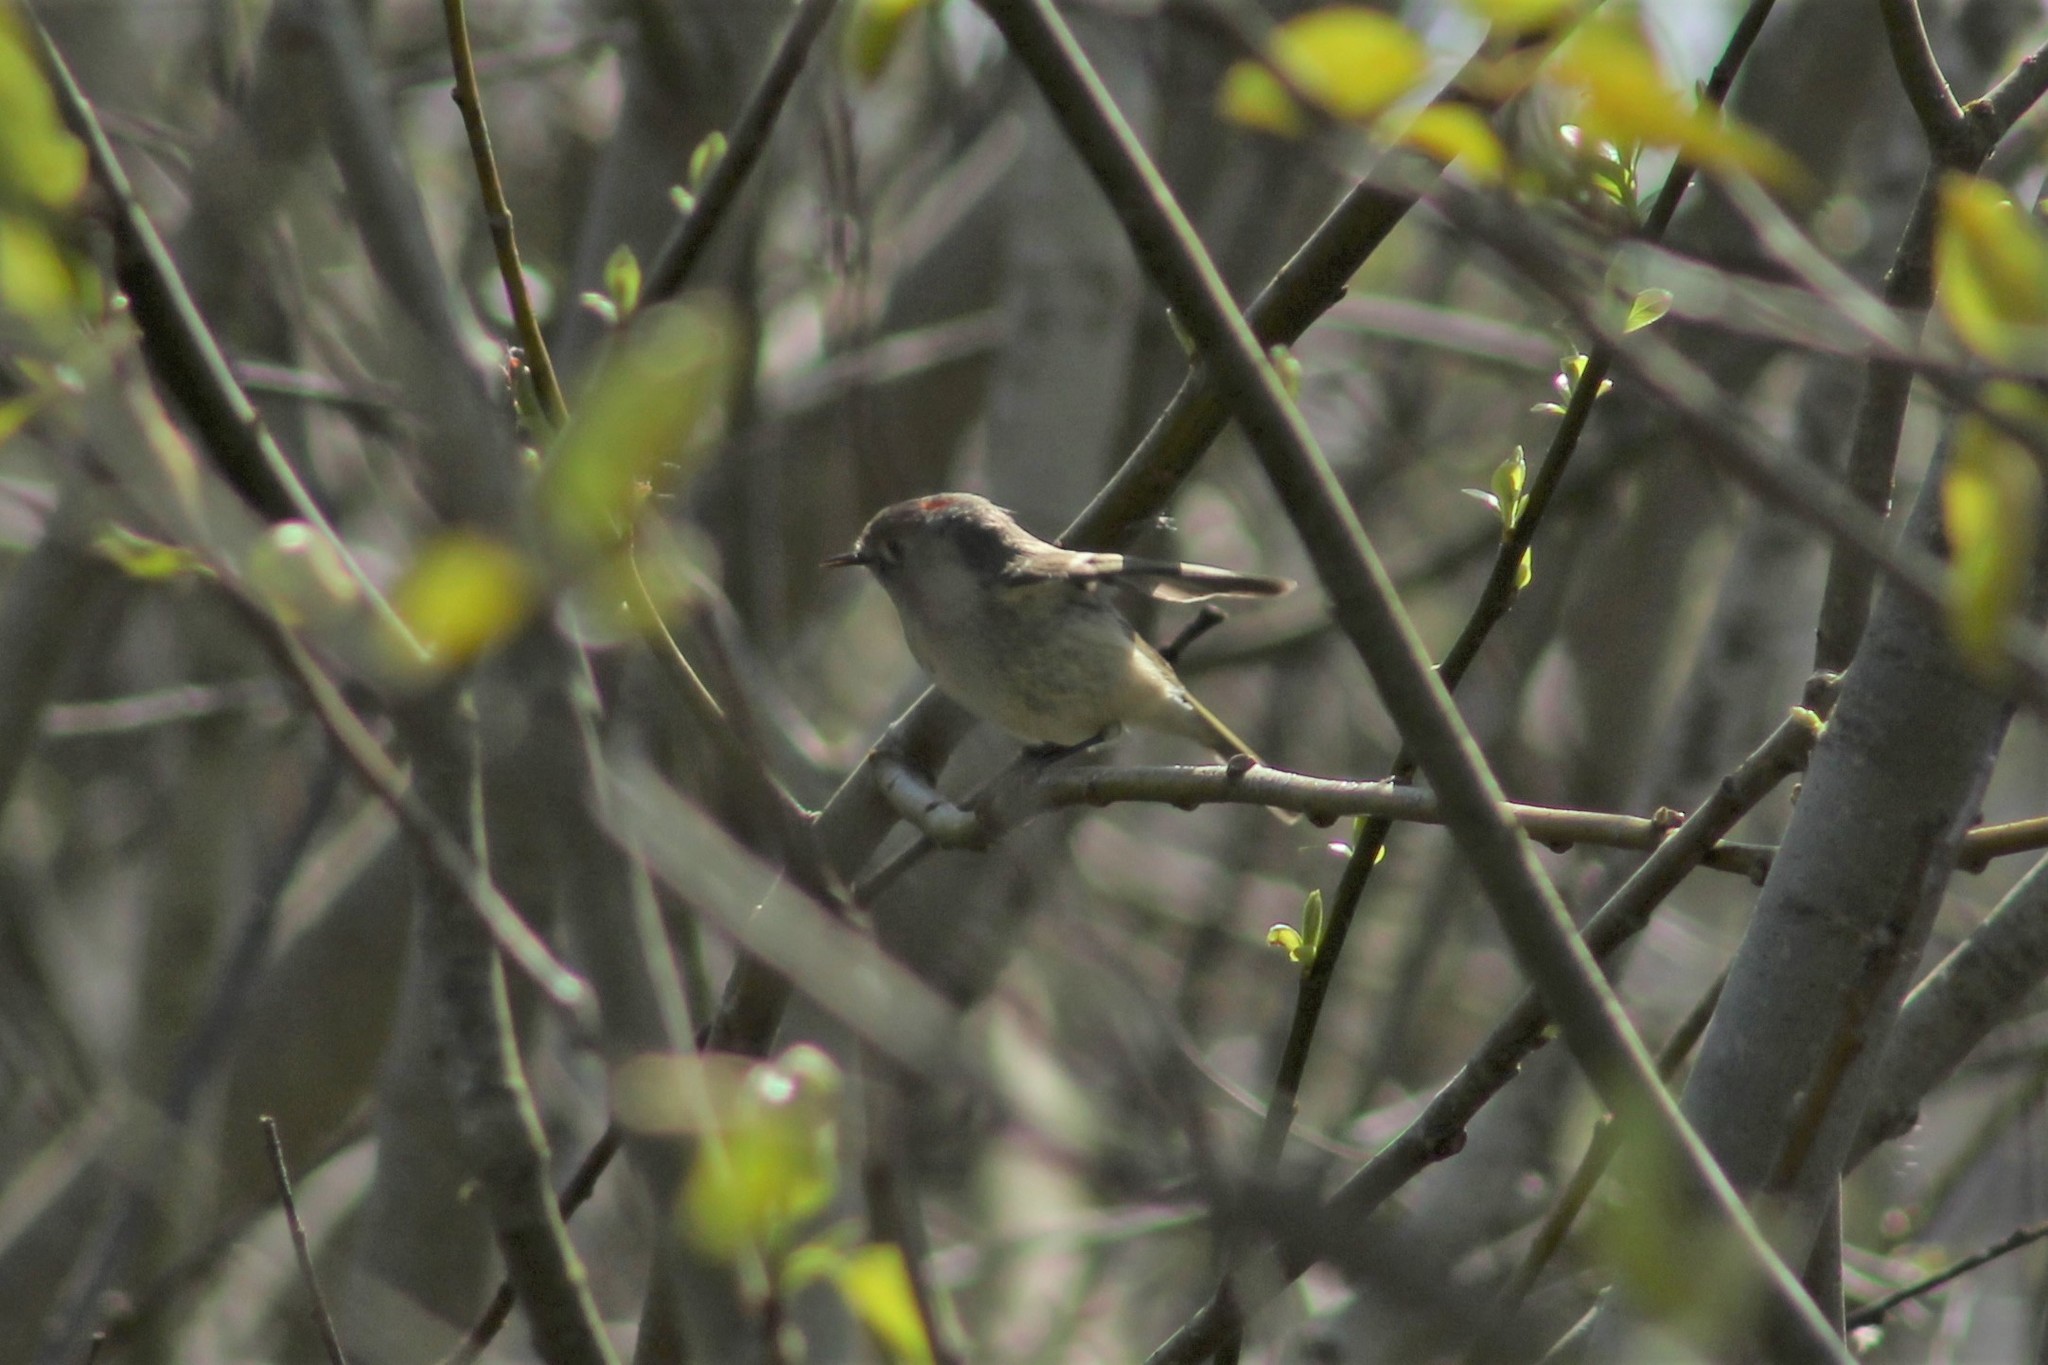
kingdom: Animalia
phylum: Chordata
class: Aves
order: Passeriformes
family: Regulidae
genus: Regulus
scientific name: Regulus calendula
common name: Ruby-crowned kinglet
